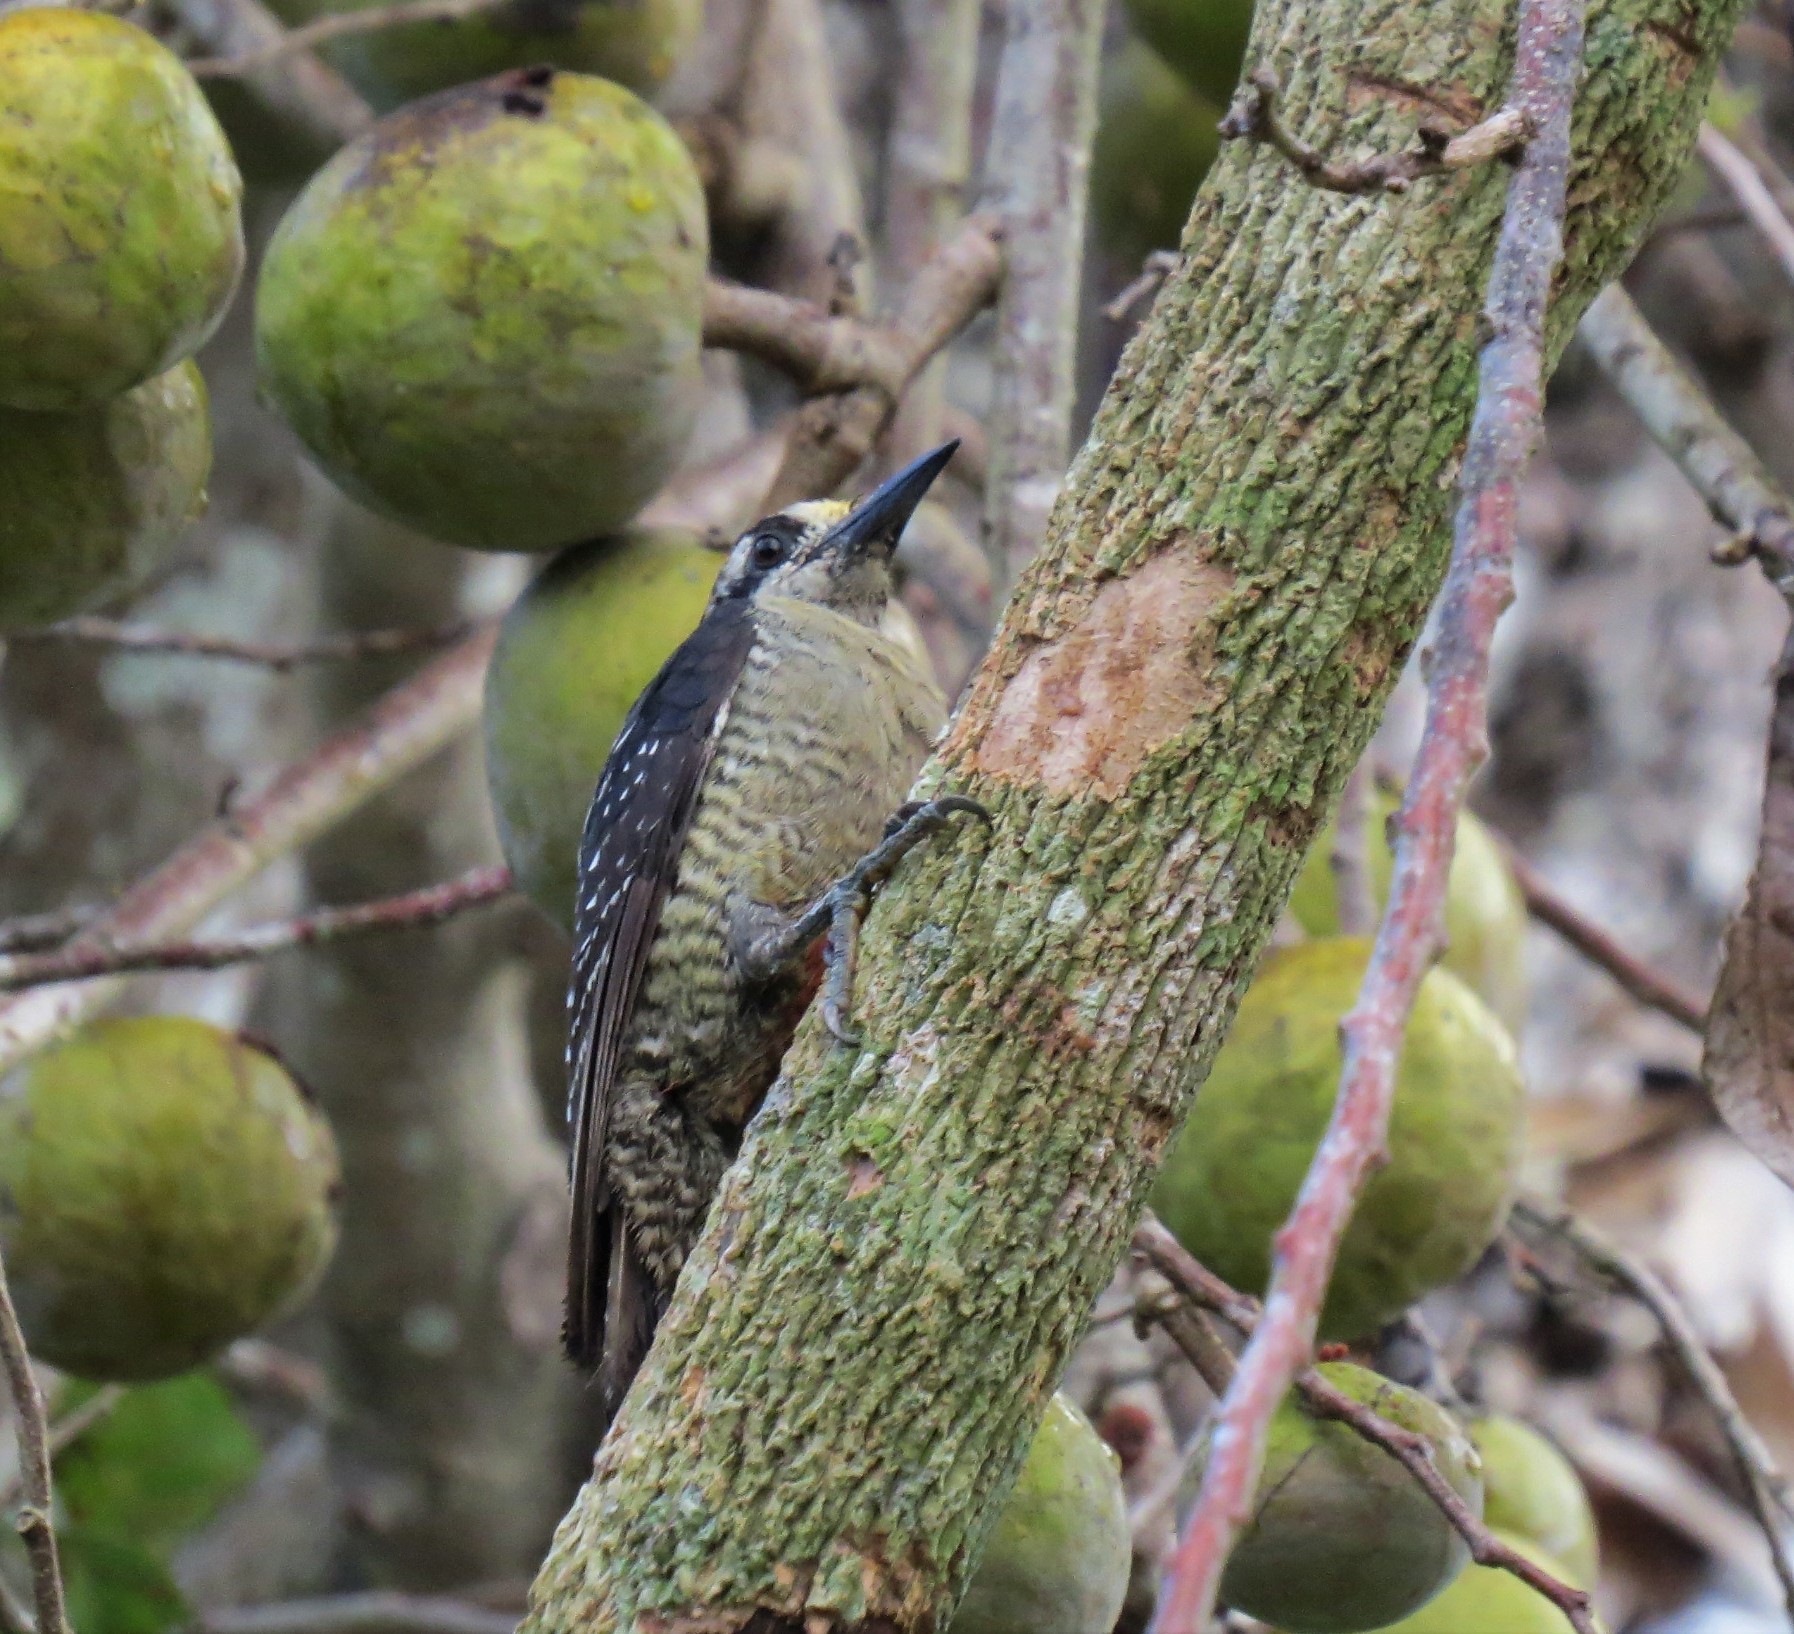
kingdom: Animalia
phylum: Chordata
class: Aves
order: Piciformes
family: Picidae
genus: Melanerpes
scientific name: Melanerpes pucherani
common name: Black-cheeked woodpecker
